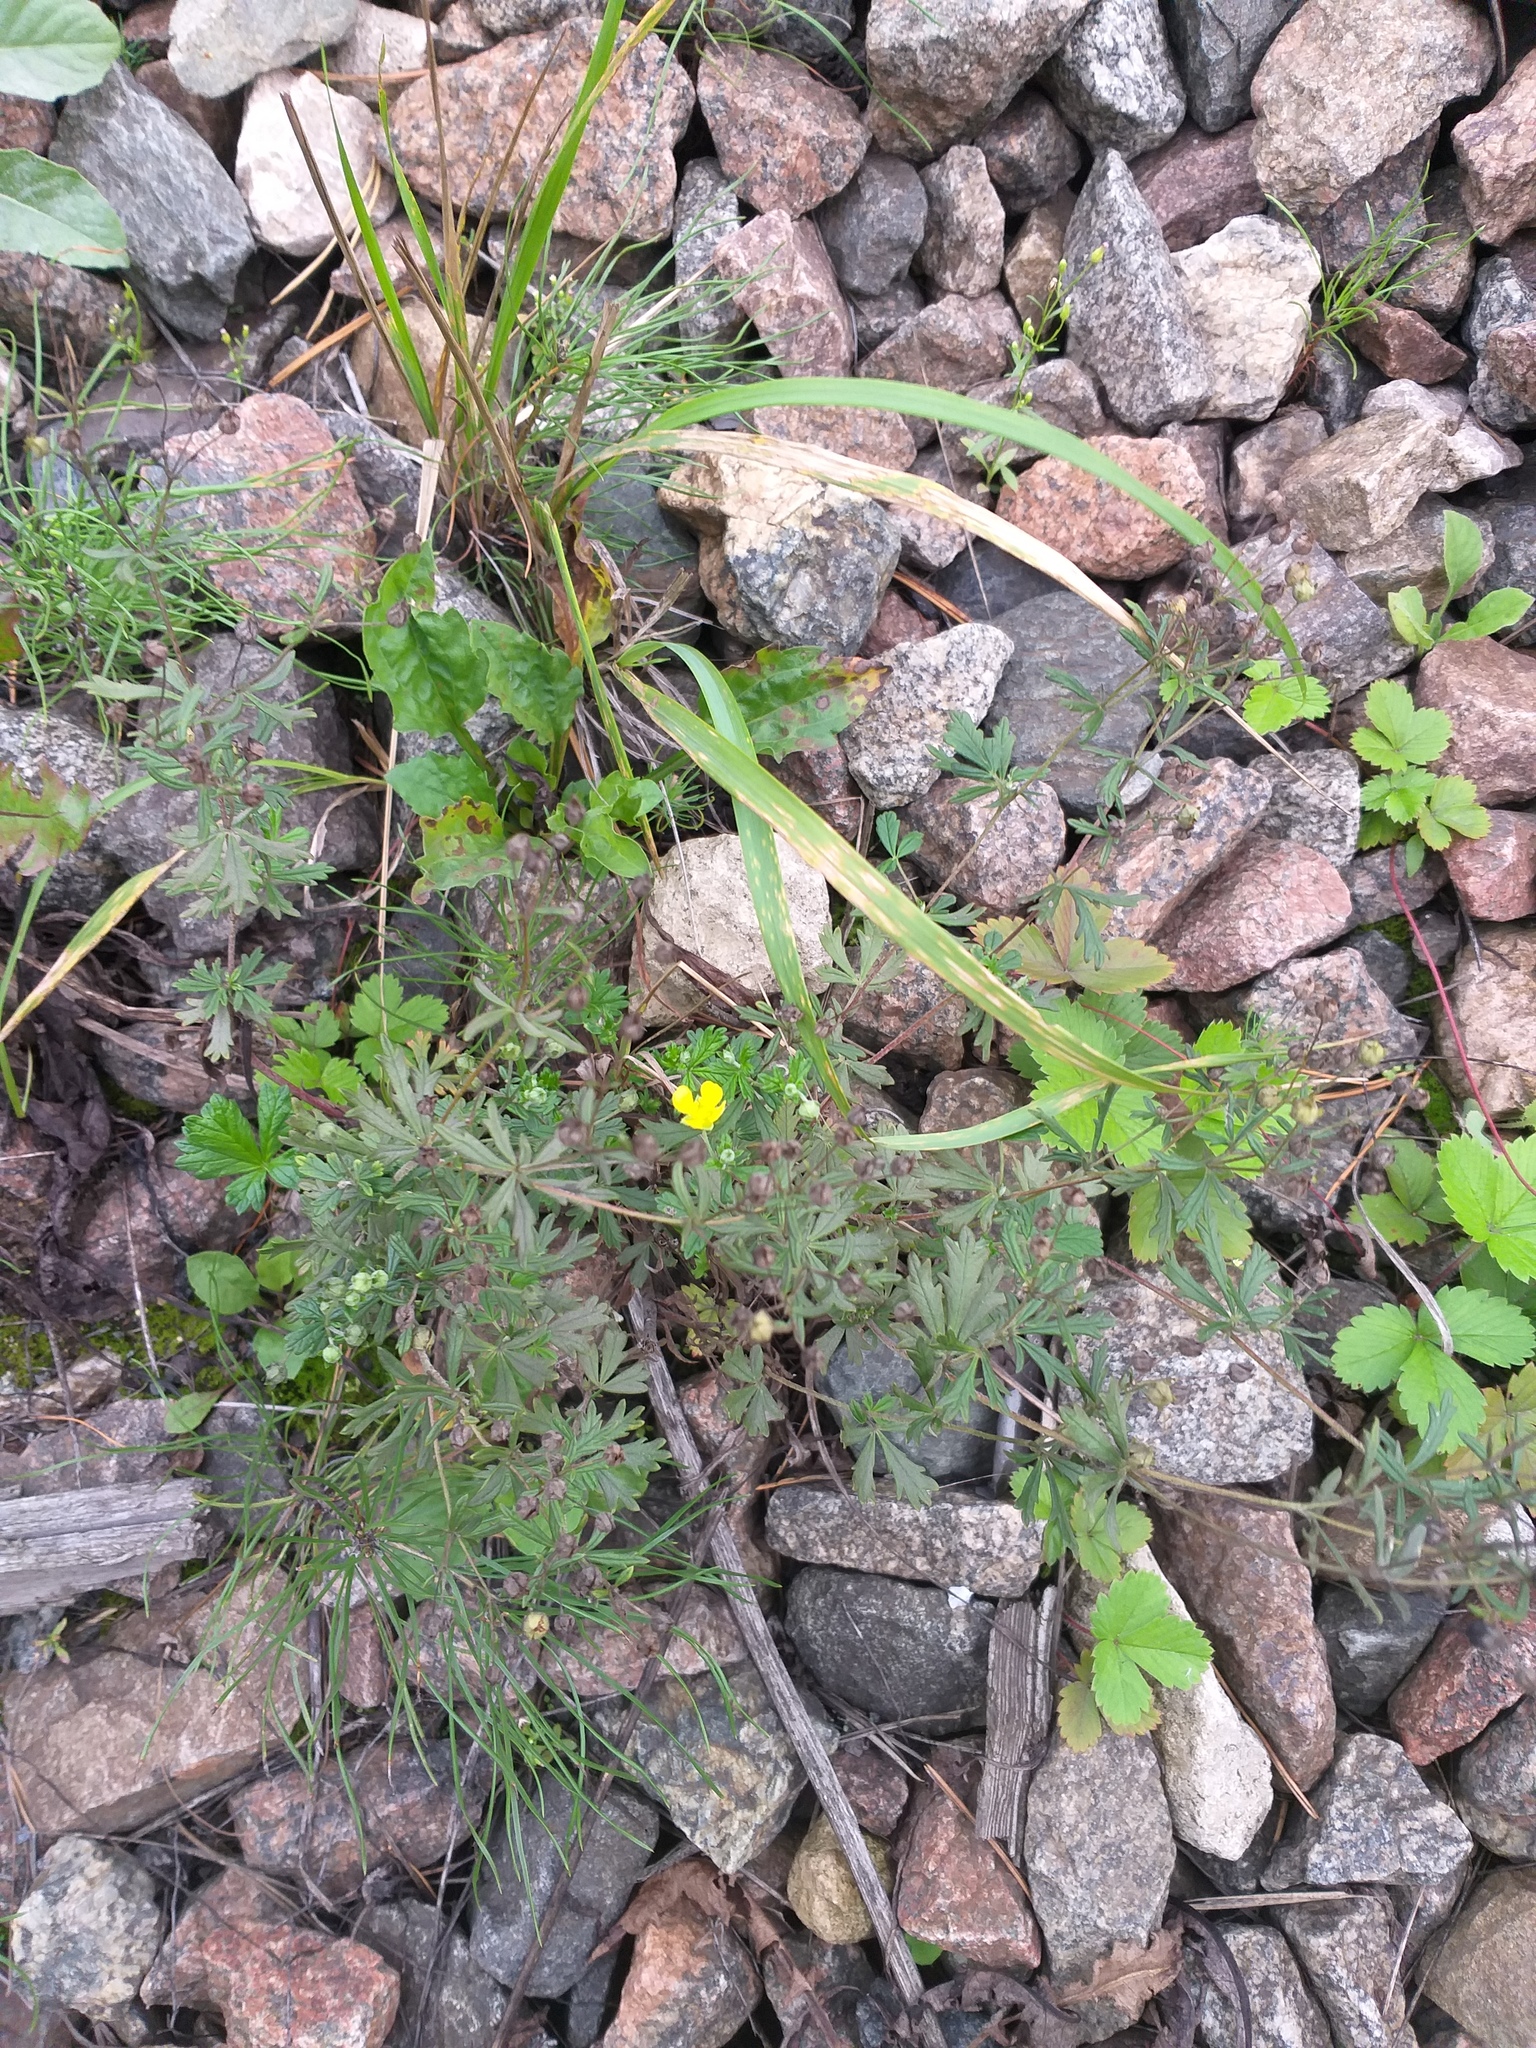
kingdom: Plantae
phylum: Tracheophyta
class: Magnoliopsida
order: Rosales
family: Rosaceae
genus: Potentilla
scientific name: Potentilla argentea
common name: Hoary cinquefoil
